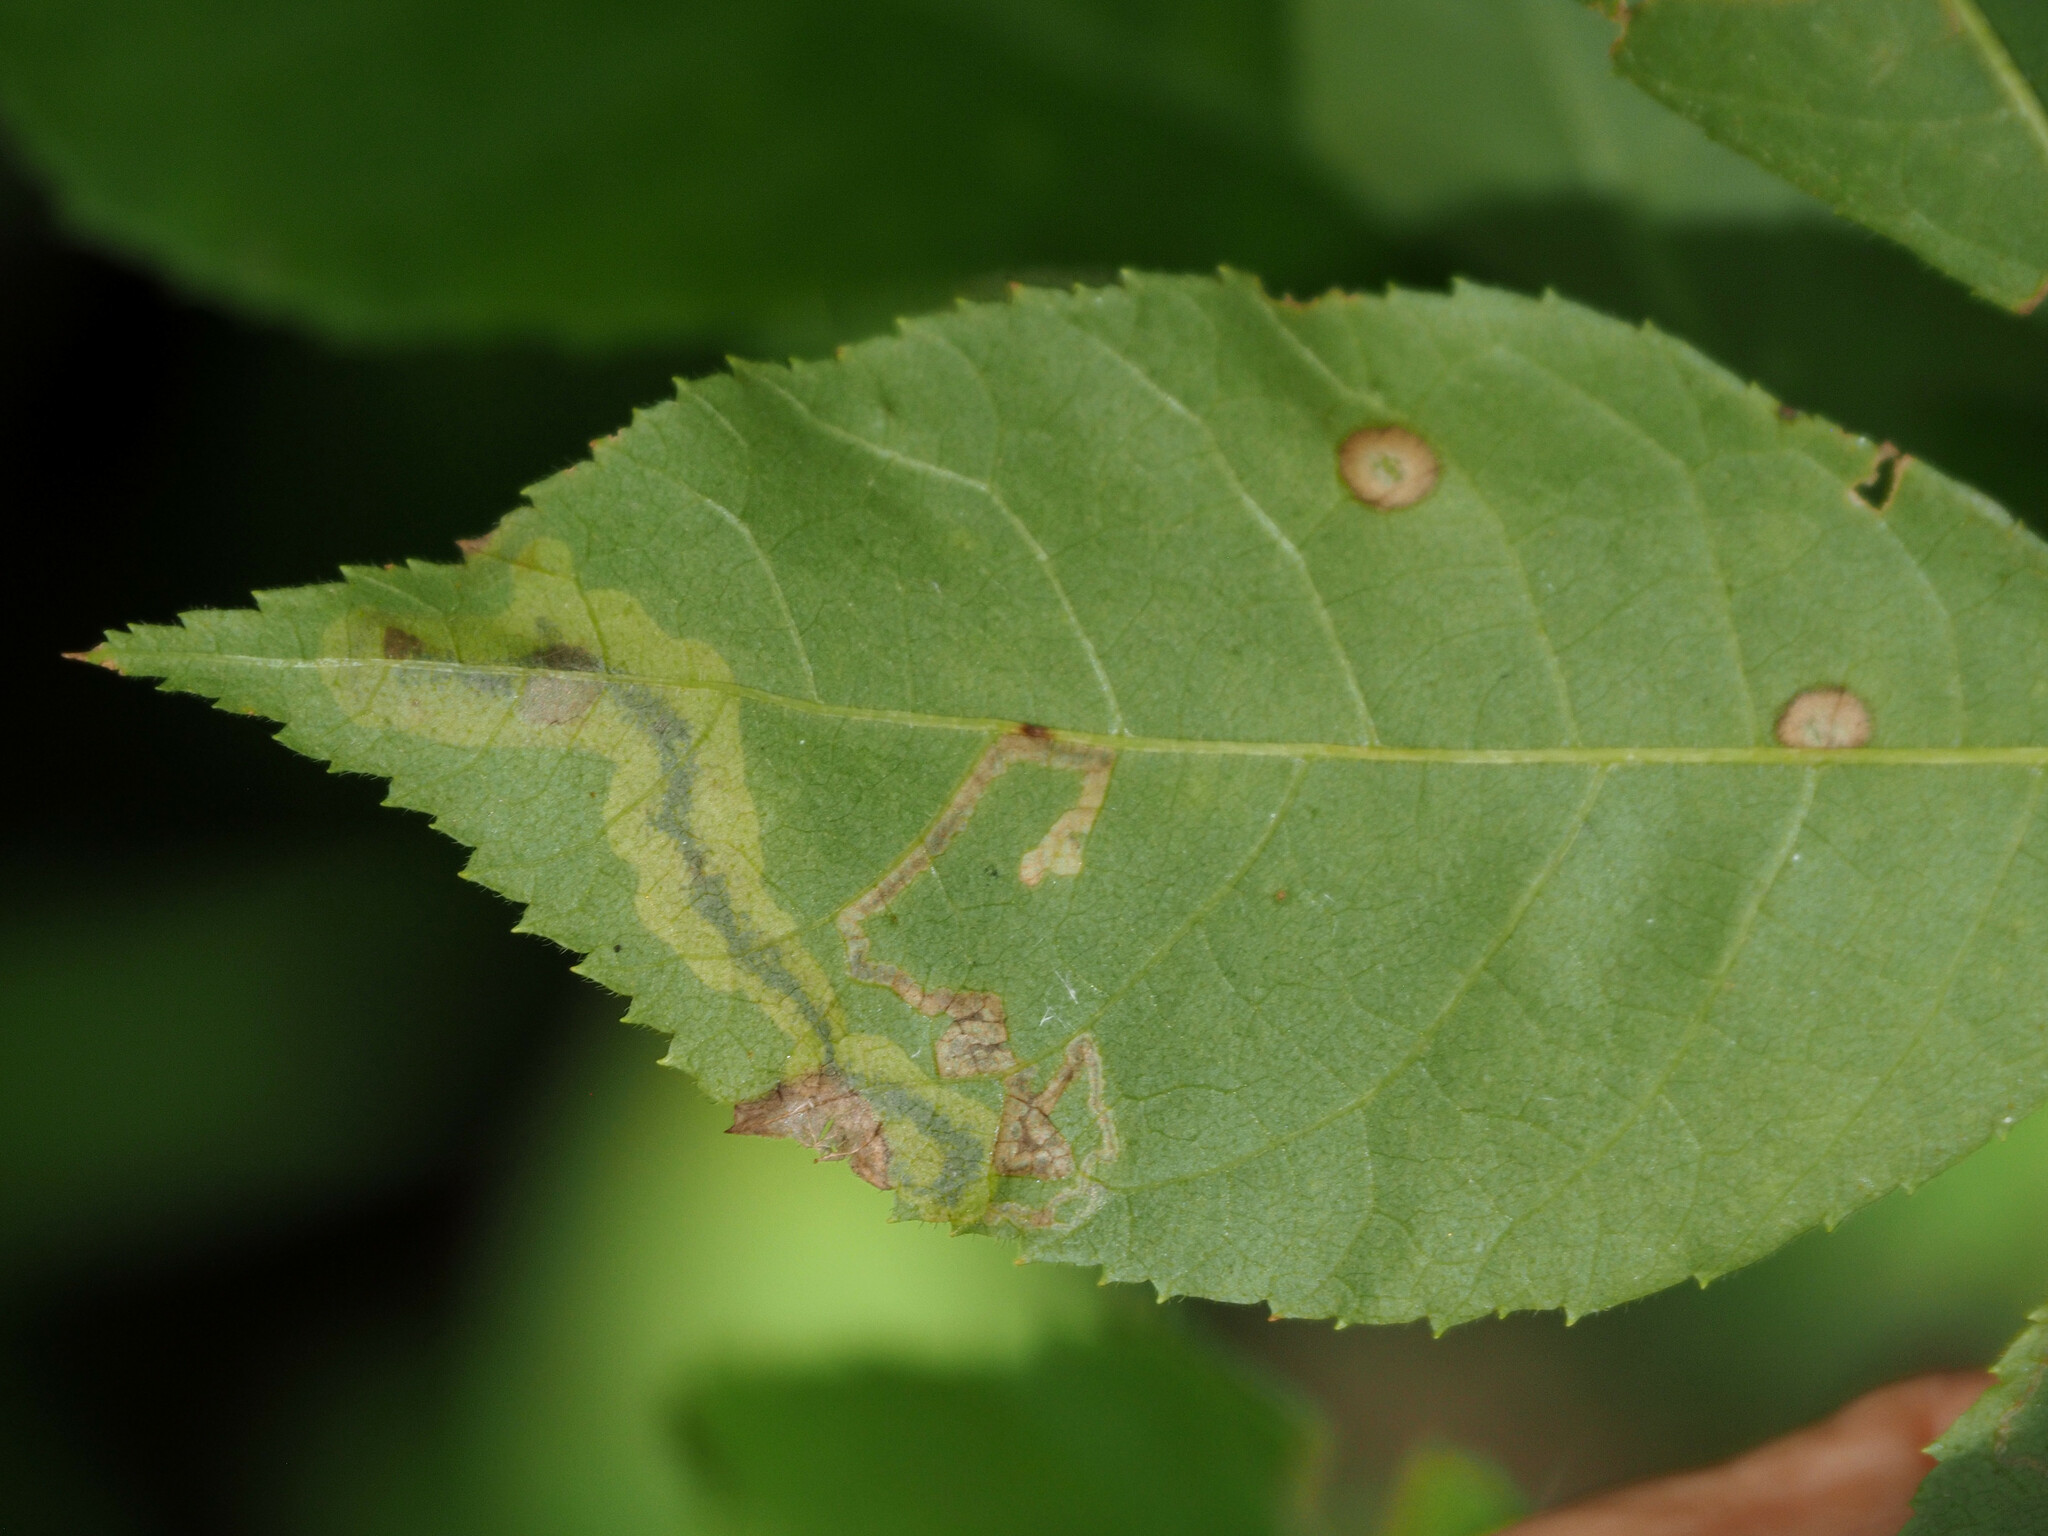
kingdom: Animalia
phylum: Arthropoda
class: Insecta
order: Lepidoptera
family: Gracillariidae
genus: Cameraria
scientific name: Cameraria caryaefoliella
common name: Pecan leafminer moth
